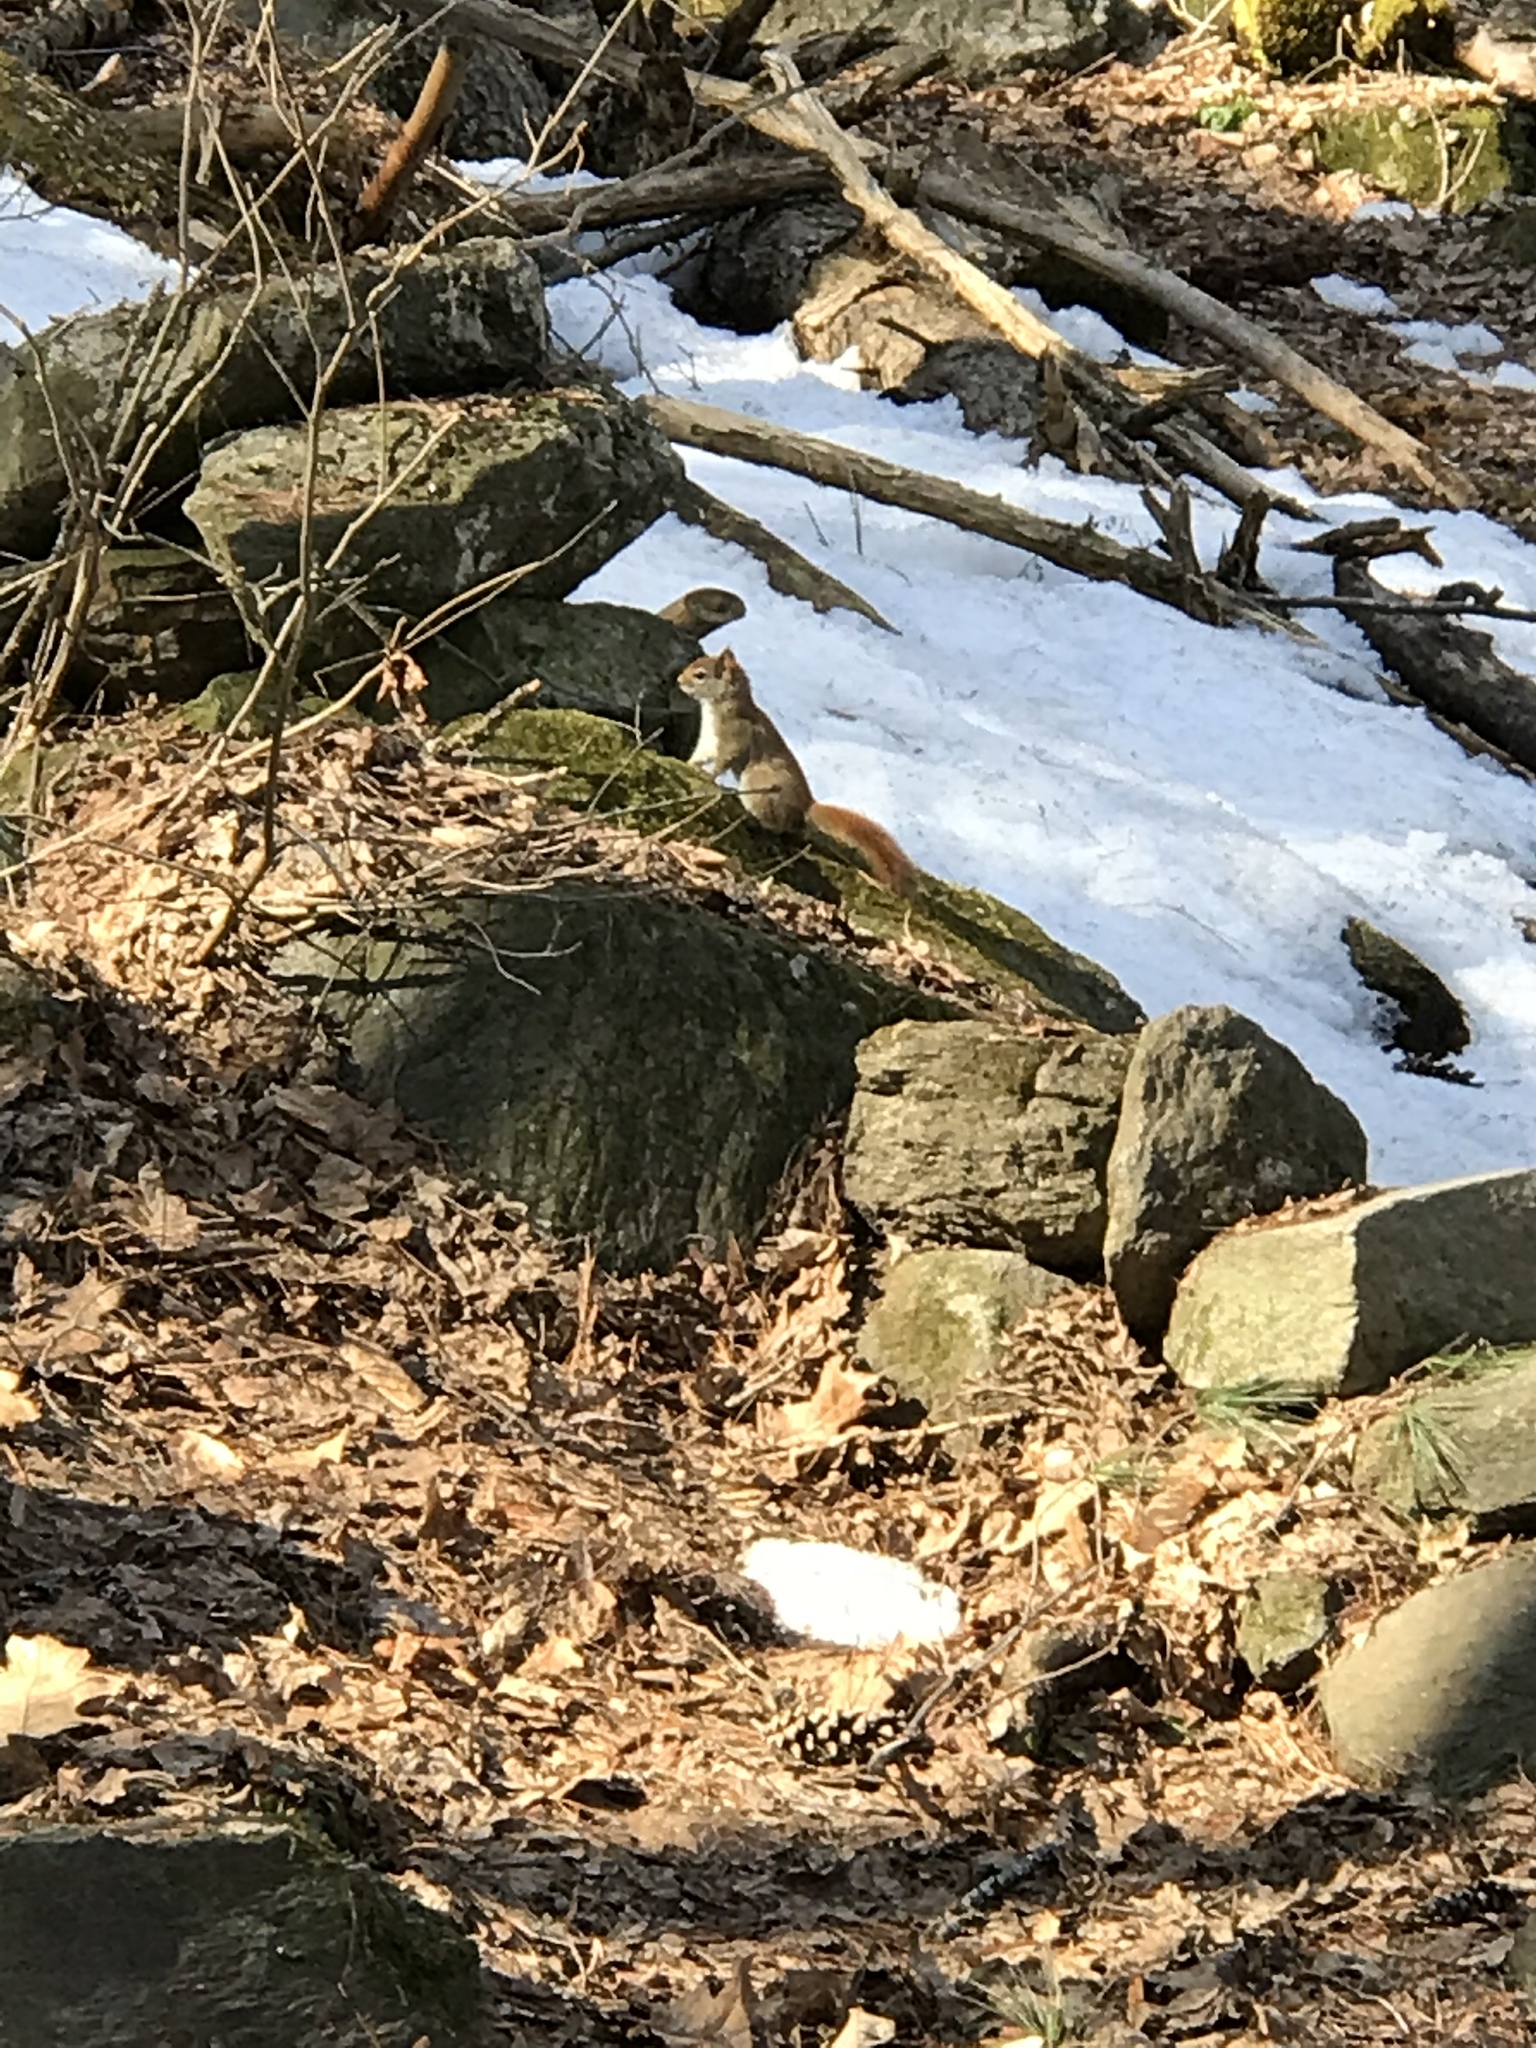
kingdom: Animalia
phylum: Chordata
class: Mammalia
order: Rodentia
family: Sciuridae
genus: Tamiasciurus
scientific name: Tamiasciurus hudsonicus
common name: Red squirrel
